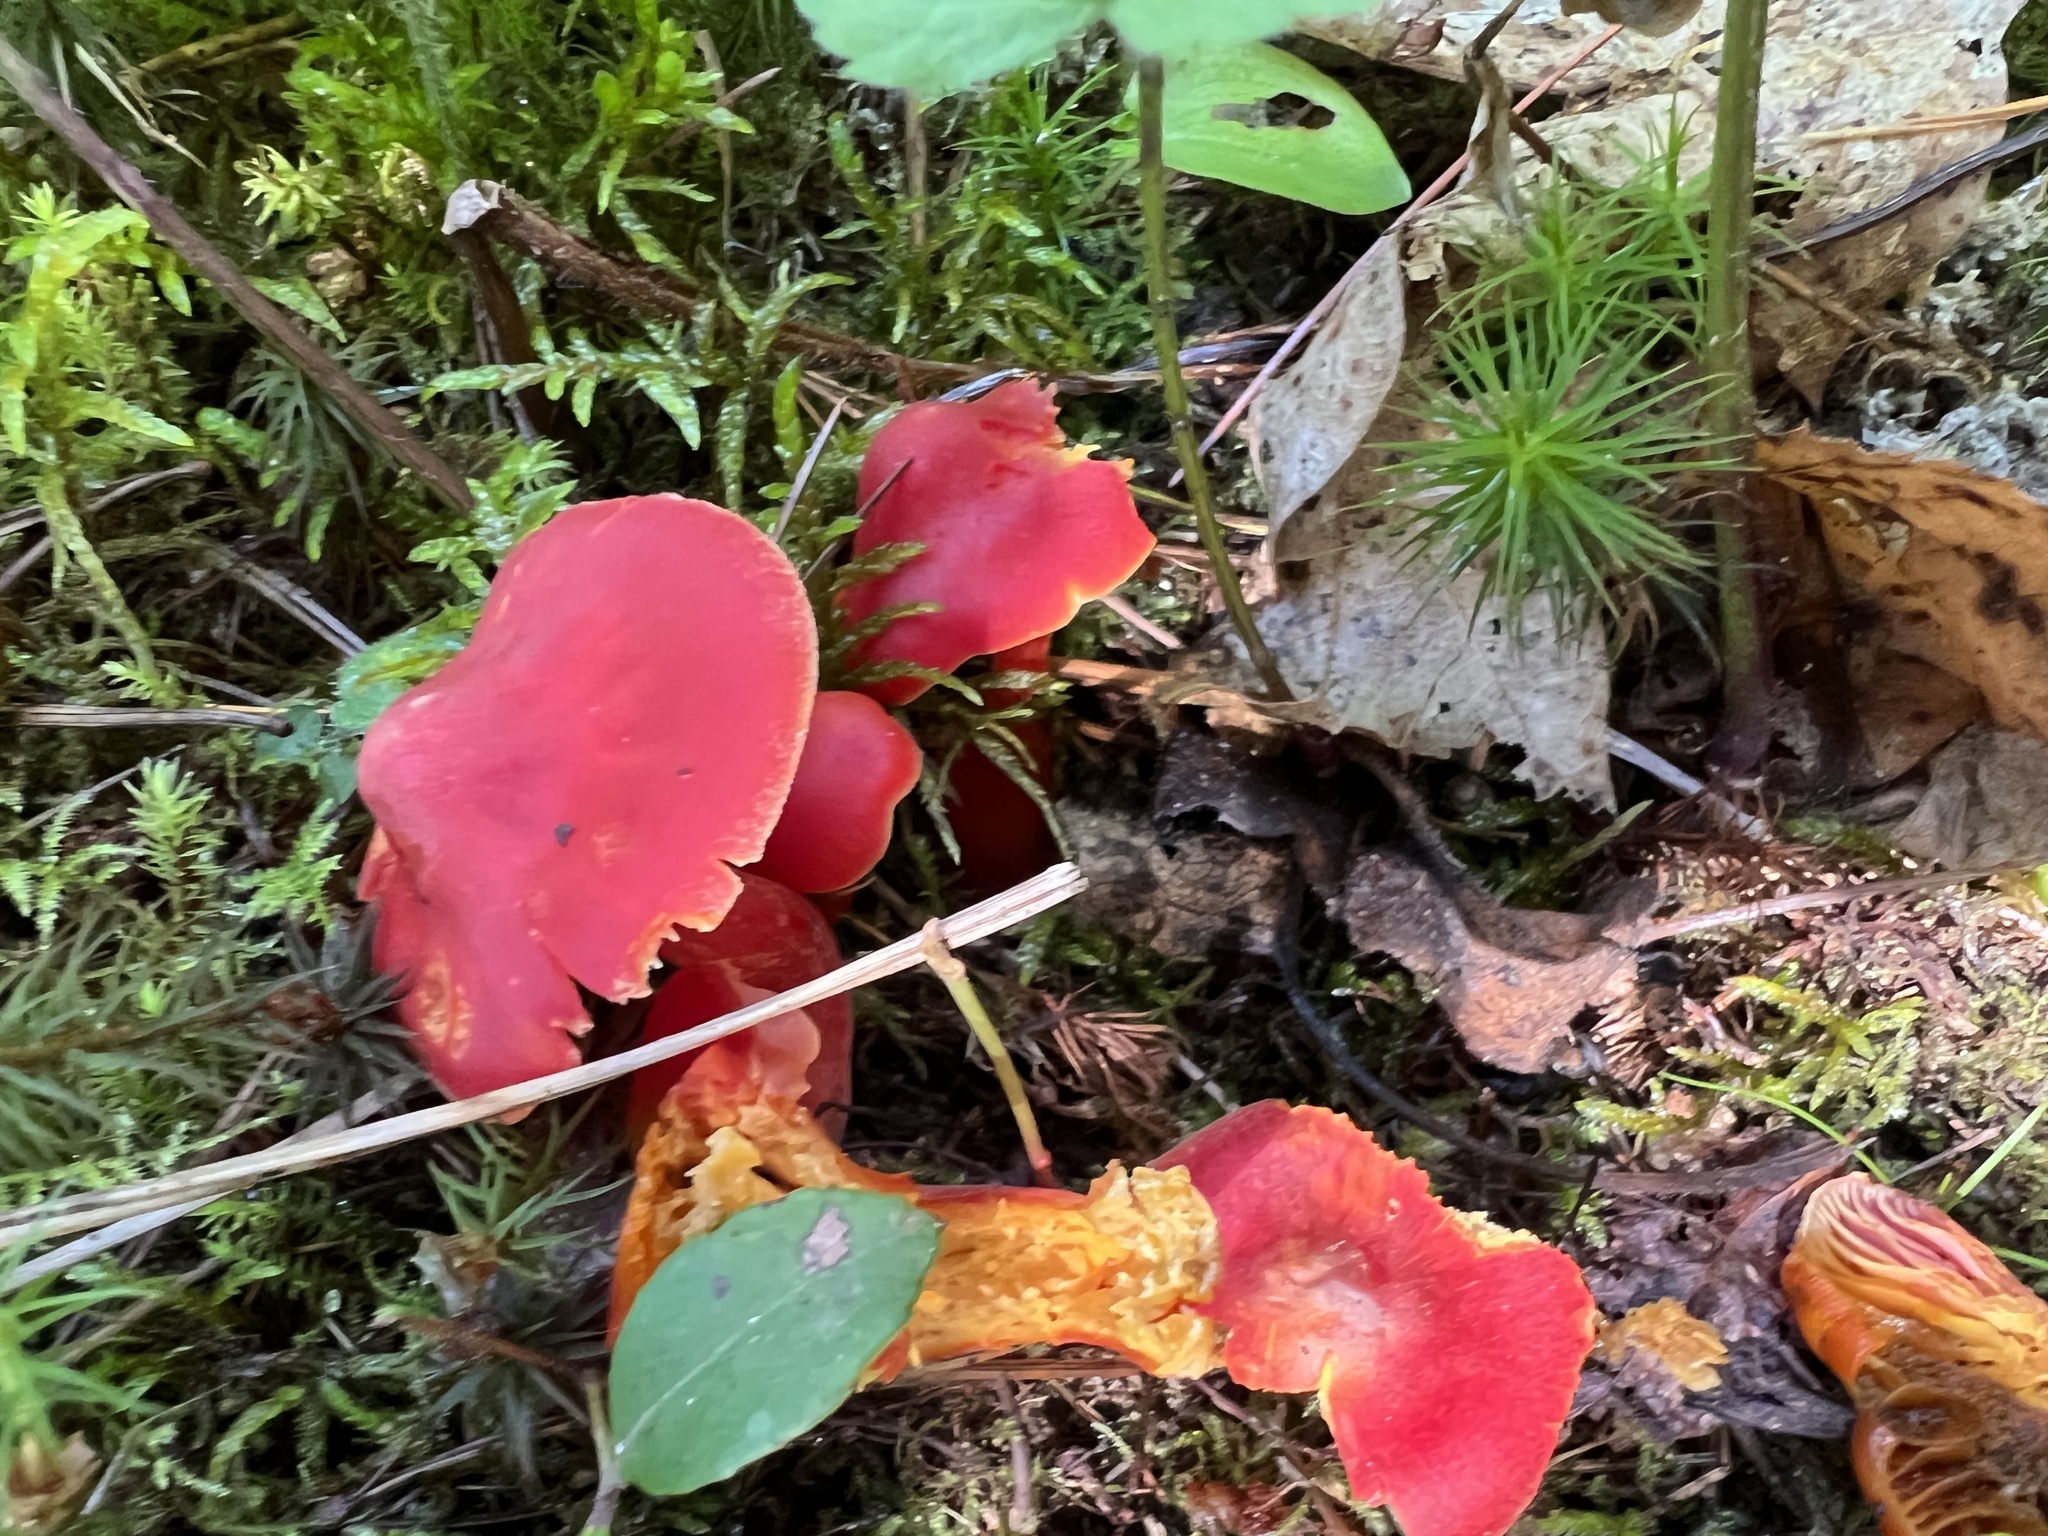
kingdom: Fungi
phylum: Basidiomycota
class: Agaricomycetes
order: Agaricales
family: Hygrophoraceae
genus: Hygrocybe
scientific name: Hygrocybe coccinea
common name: Scarlet hood
